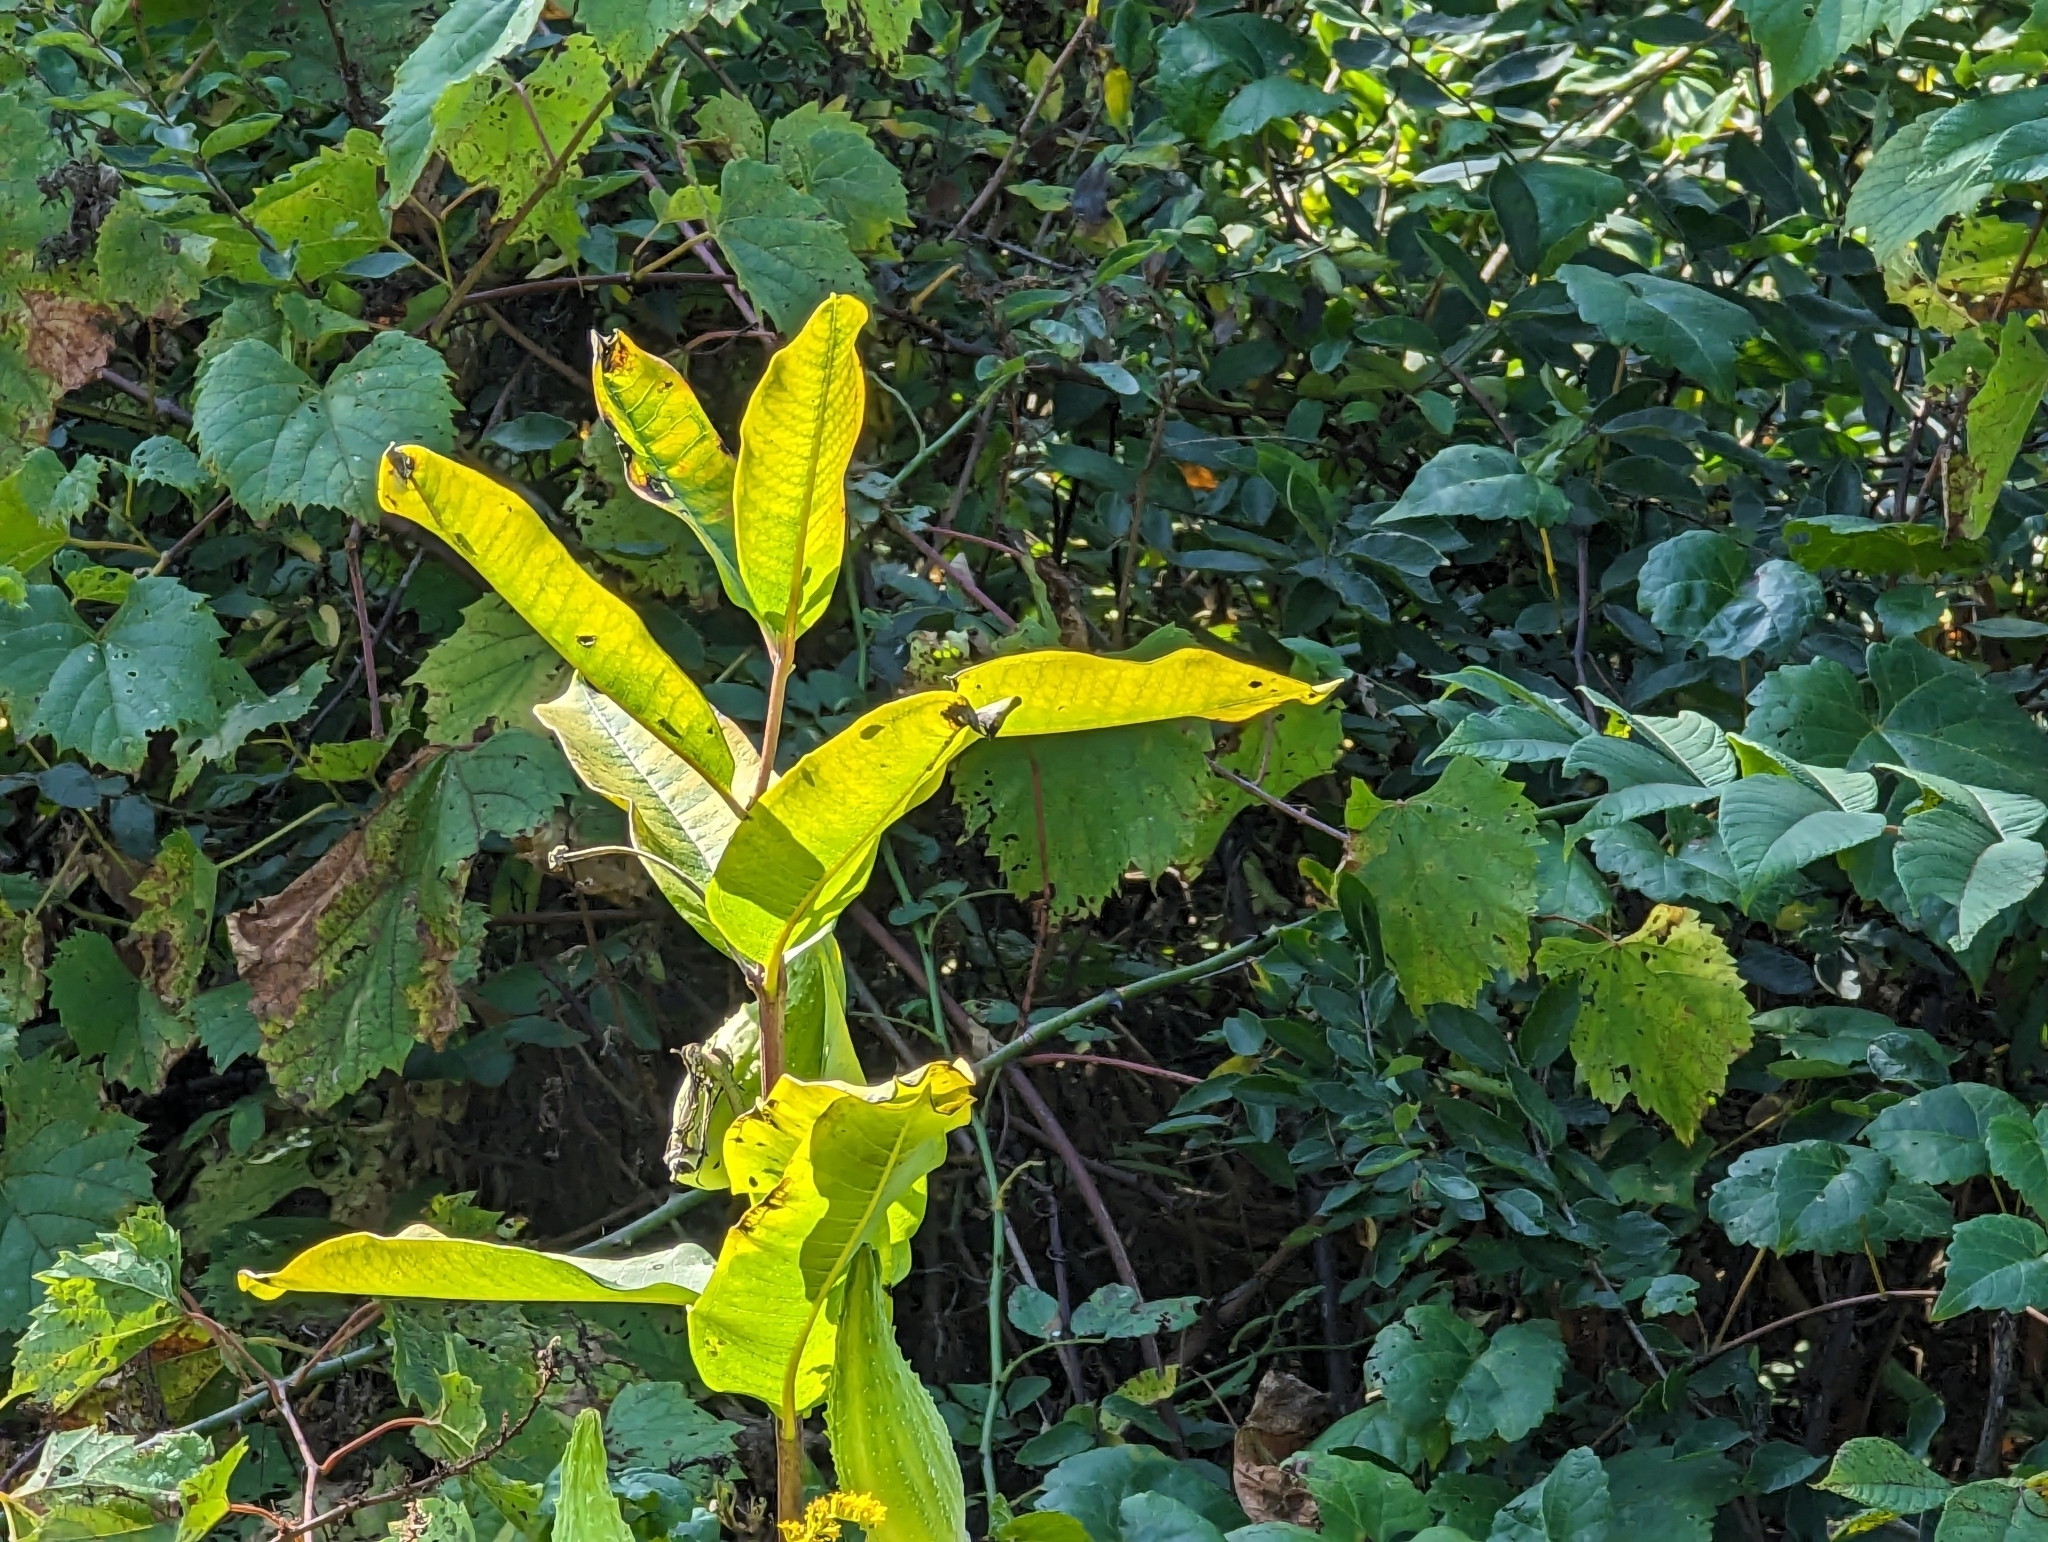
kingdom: Plantae
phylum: Tracheophyta
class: Magnoliopsida
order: Gentianales
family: Apocynaceae
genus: Asclepias
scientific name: Asclepias syriaca
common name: Common milkweed
